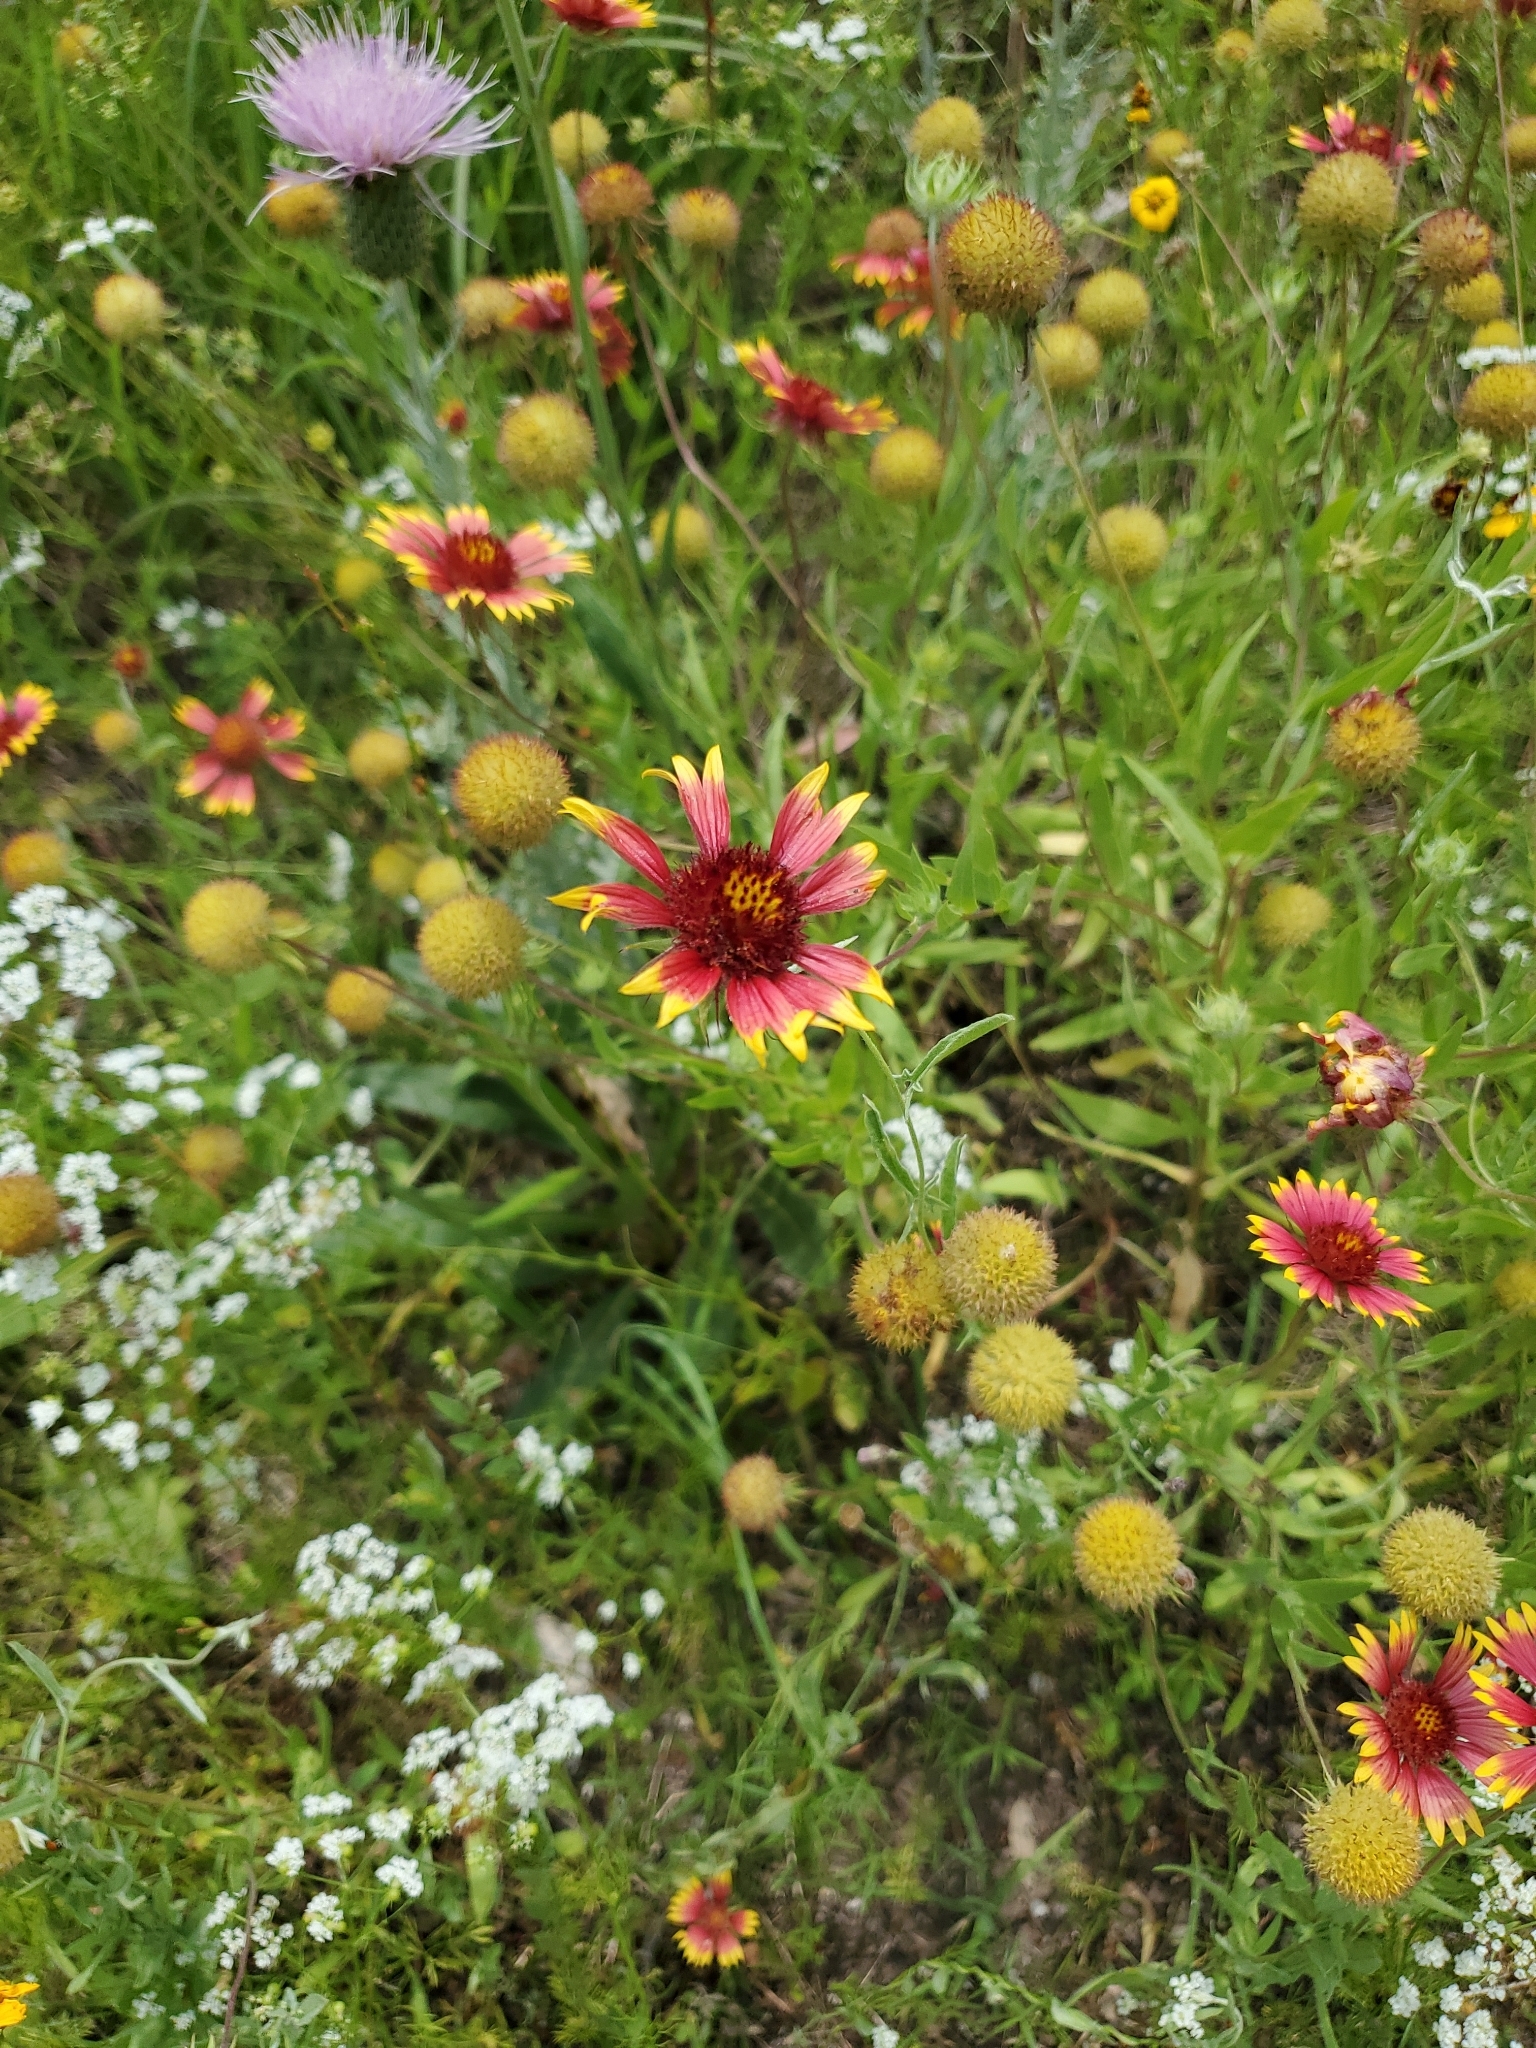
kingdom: Plantae
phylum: Tracheophyta
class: Magnoliopsida
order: Asterales
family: Asteraceae
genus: Gaillardia
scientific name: Gaillardia pulchella
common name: Firewheel
